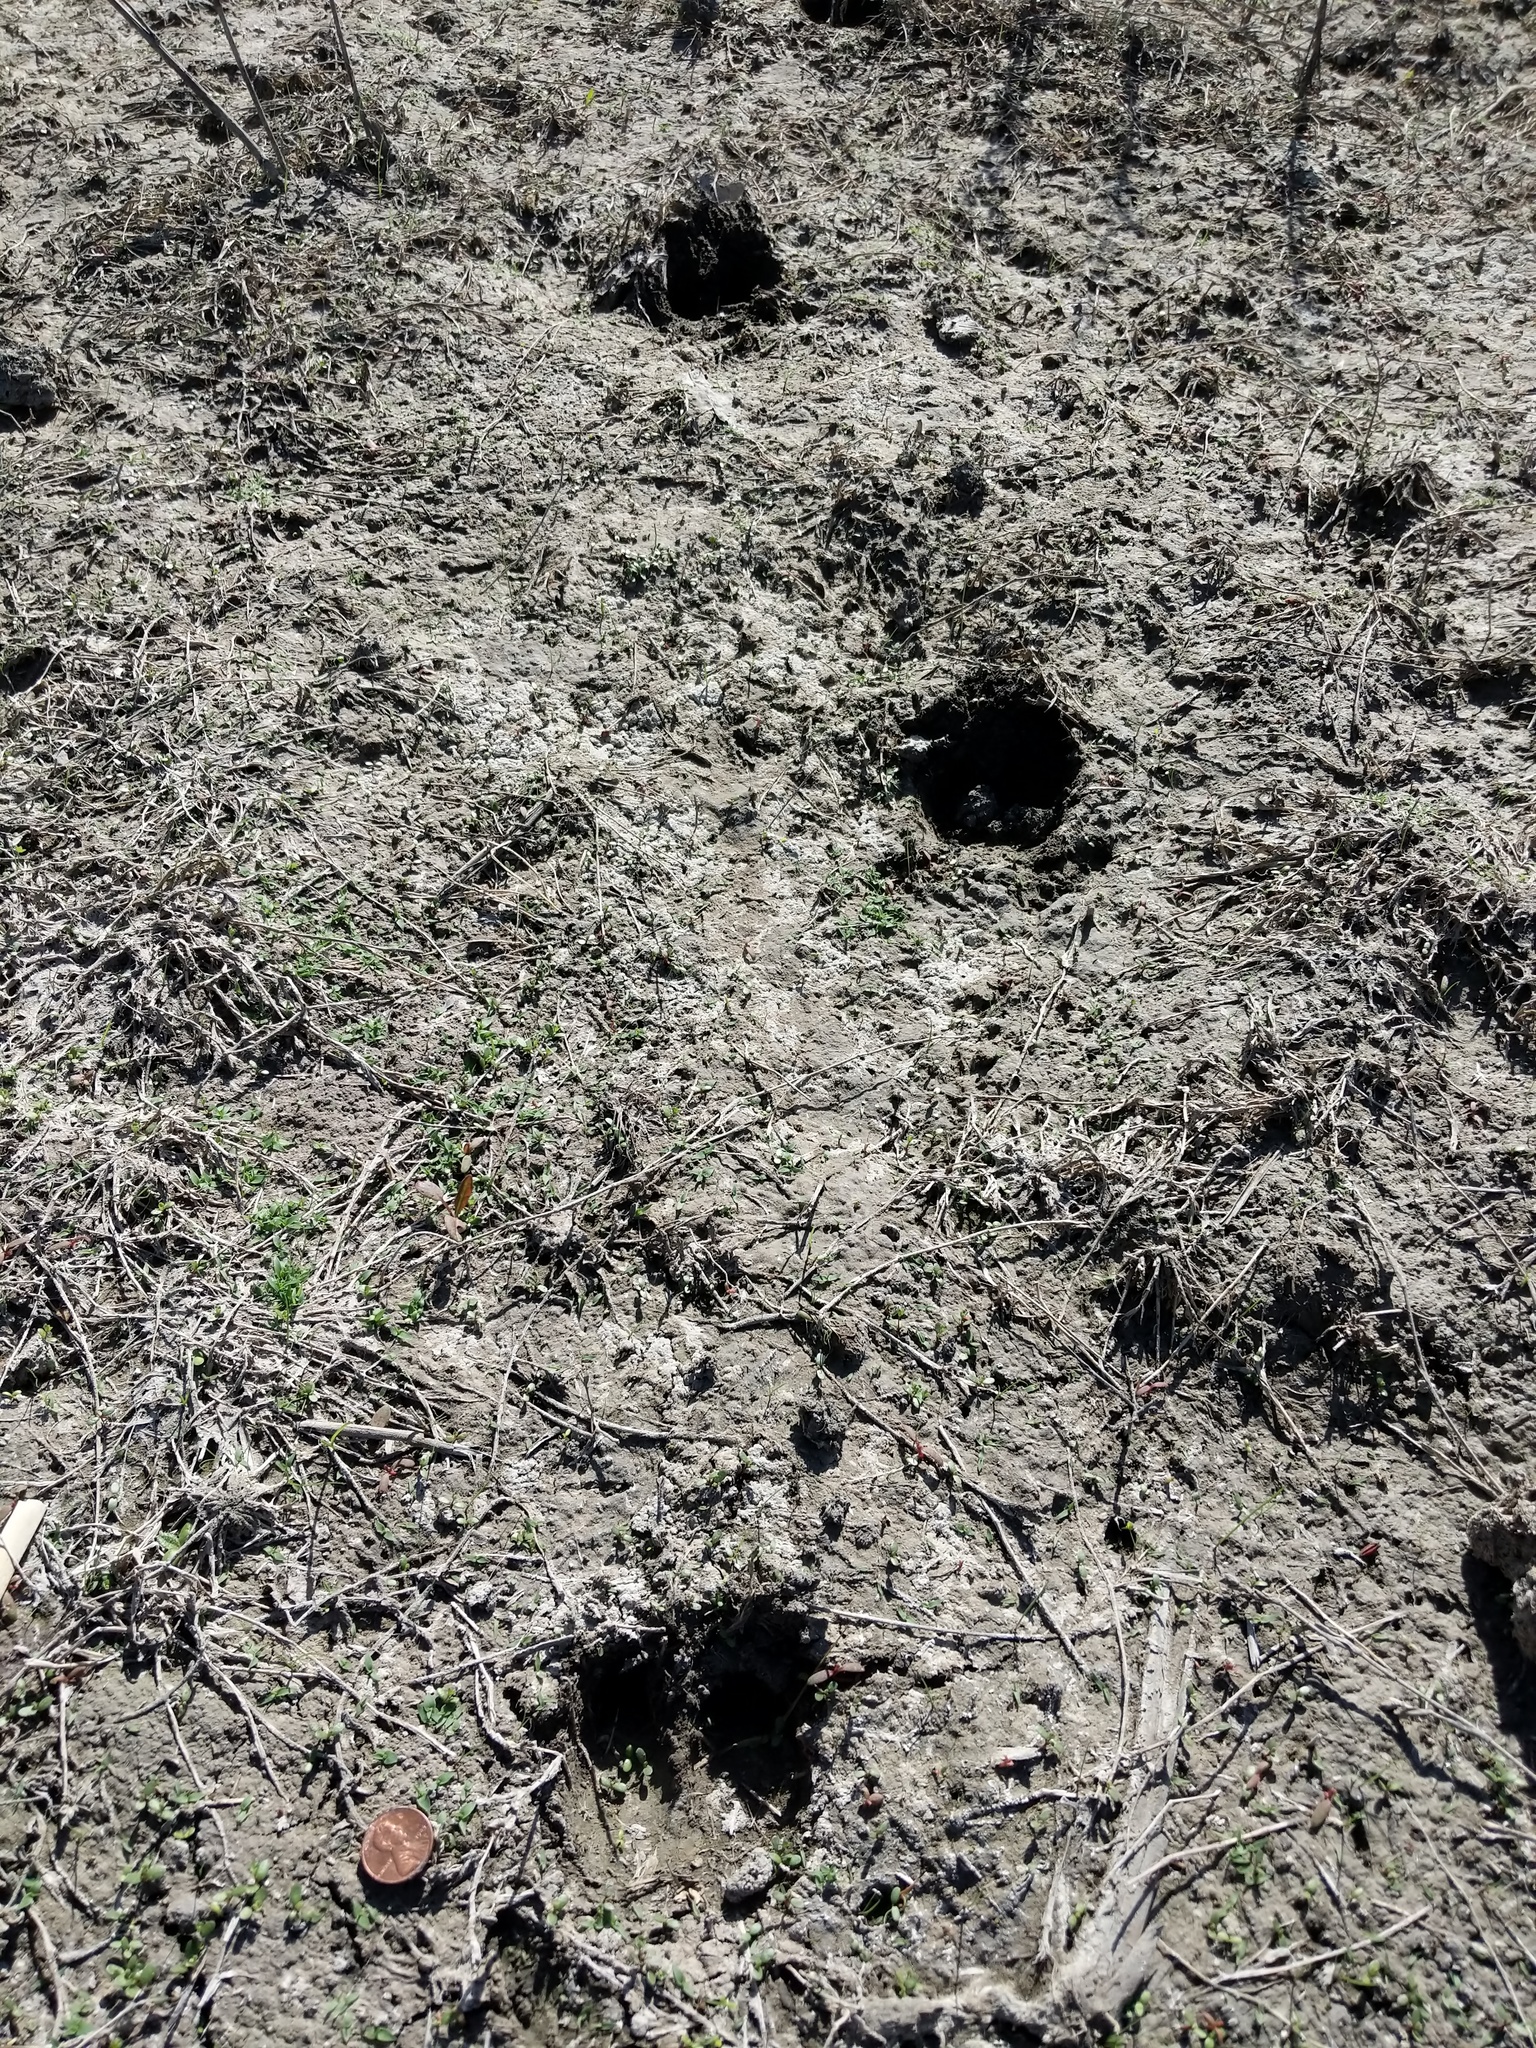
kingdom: Animalia
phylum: Chordata
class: Mammalia
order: Artiodactyla
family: Suidae
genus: Sus
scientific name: Sus scrofa
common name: Wild boar
